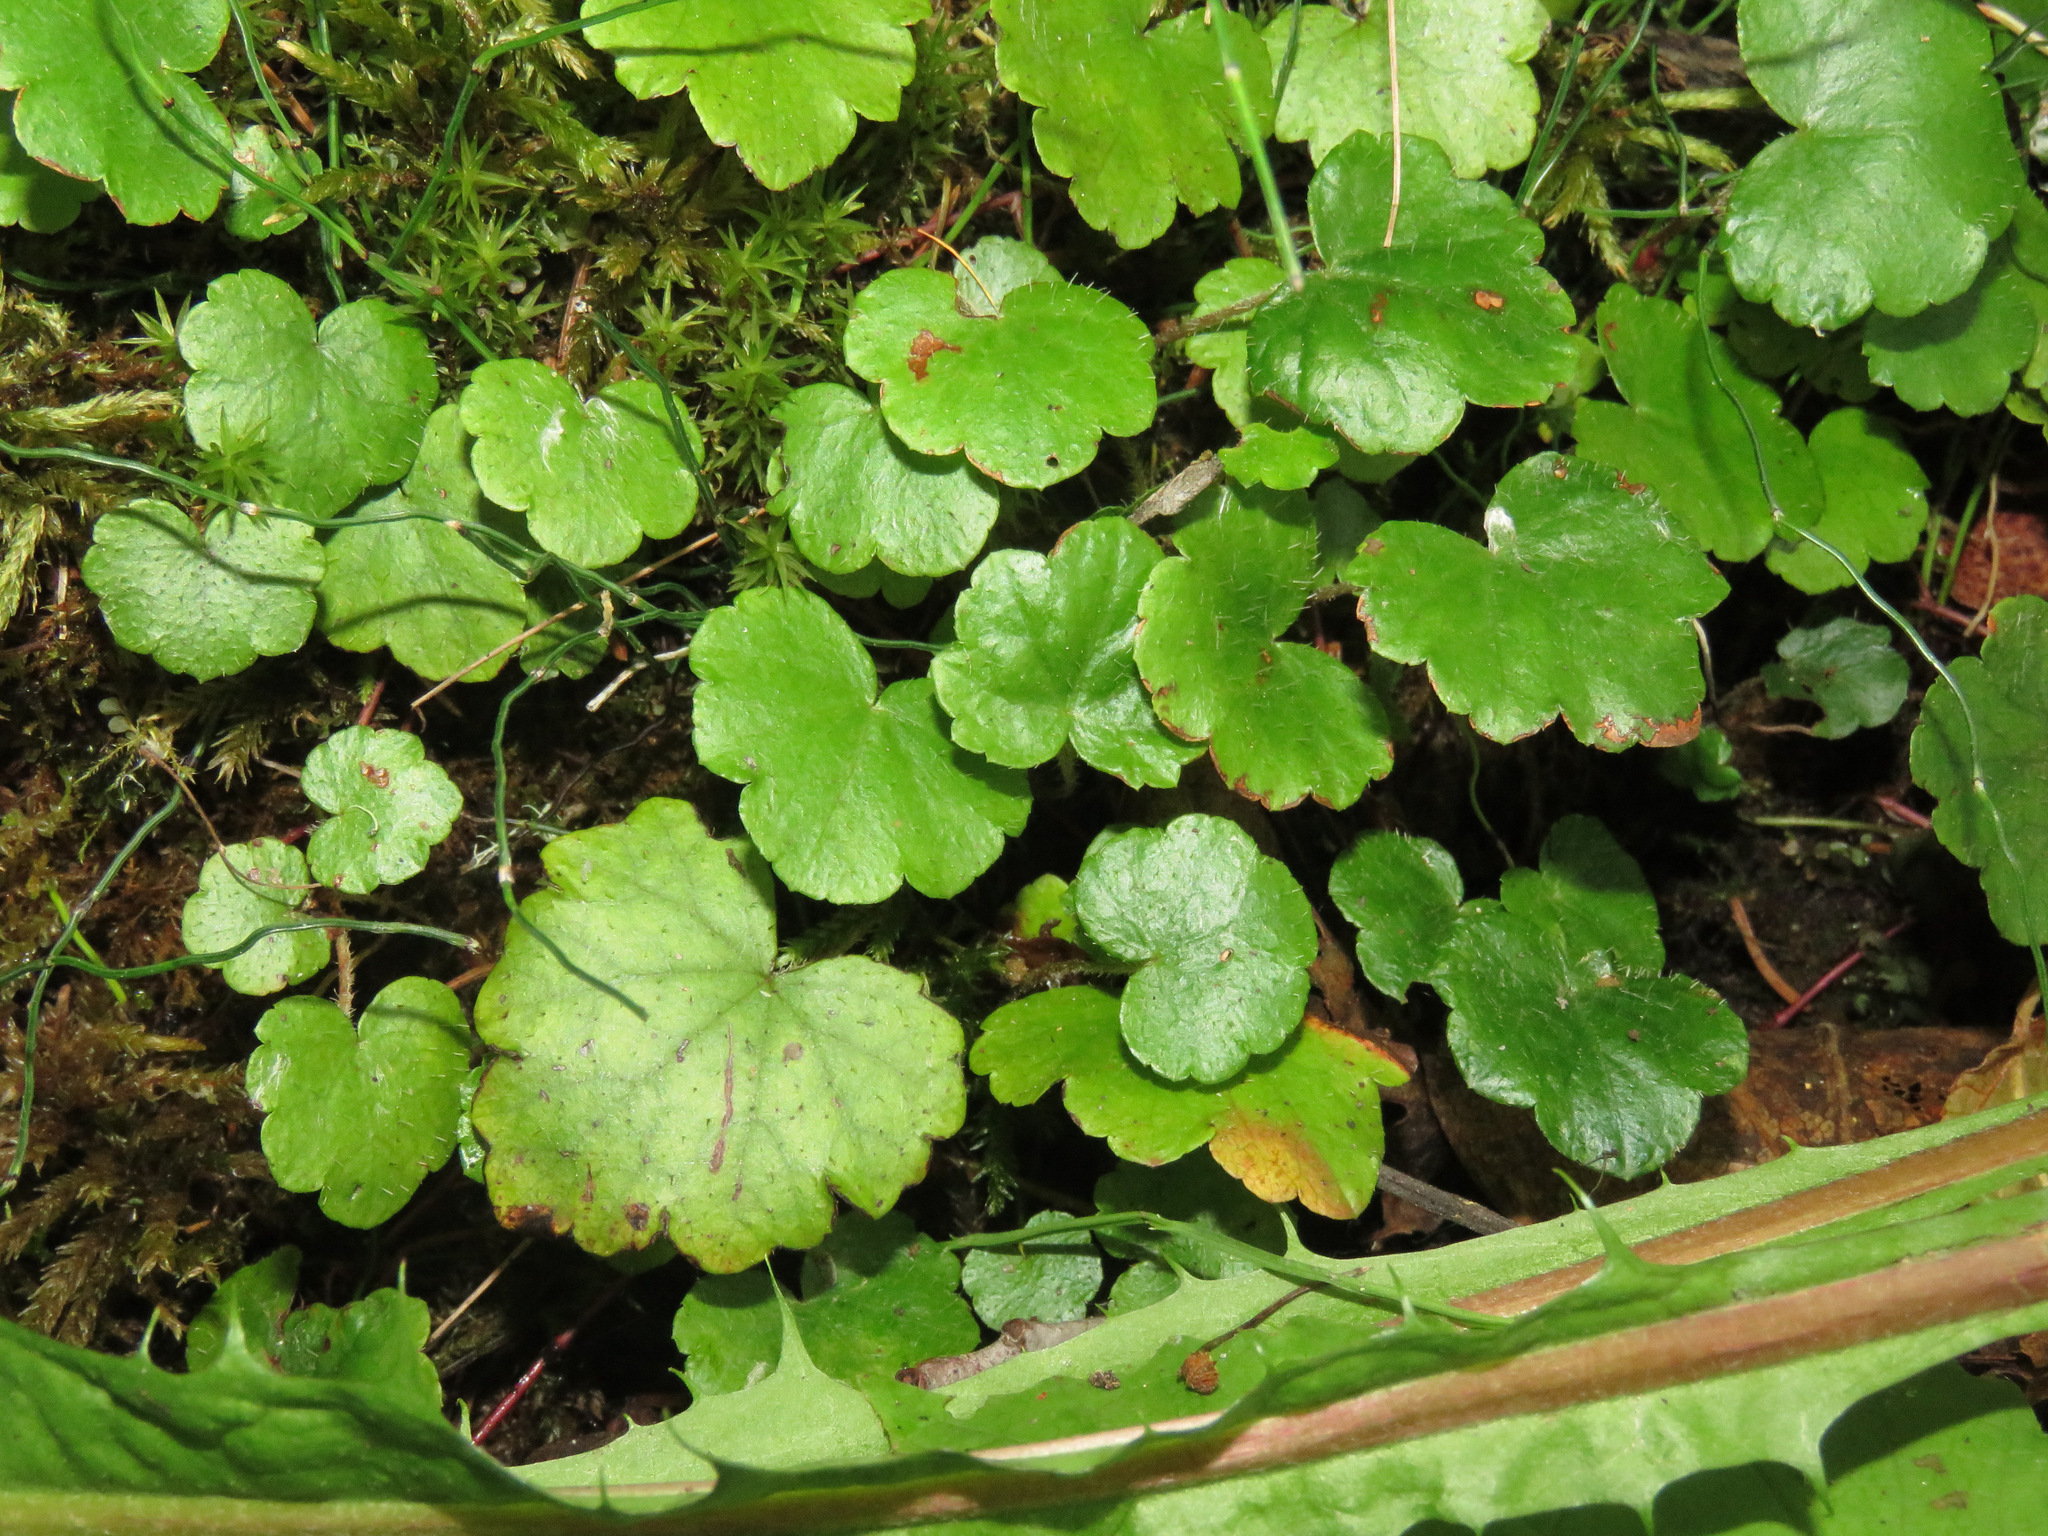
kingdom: Plantae
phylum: Tracheophyta
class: Magnoliopsida
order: Saxifragales
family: Saxifragaceae
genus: Mitella
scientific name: Mitella nuda
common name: Bare-stemmed bishop's-cap
